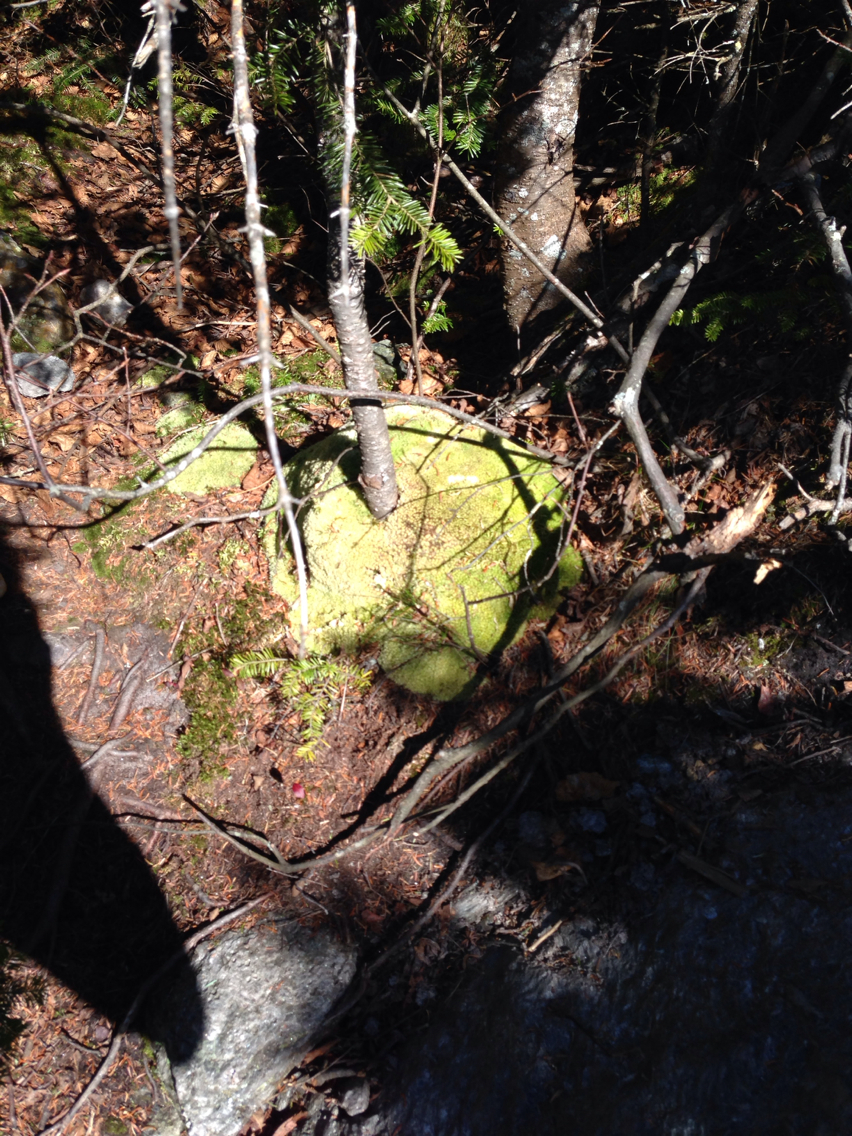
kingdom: Plantae
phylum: Bryophyta
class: Bryopsida
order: Dicranales
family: Leucobryaceae
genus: Leucobryum
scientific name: Leucobryum glaucum
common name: Large white-moss
